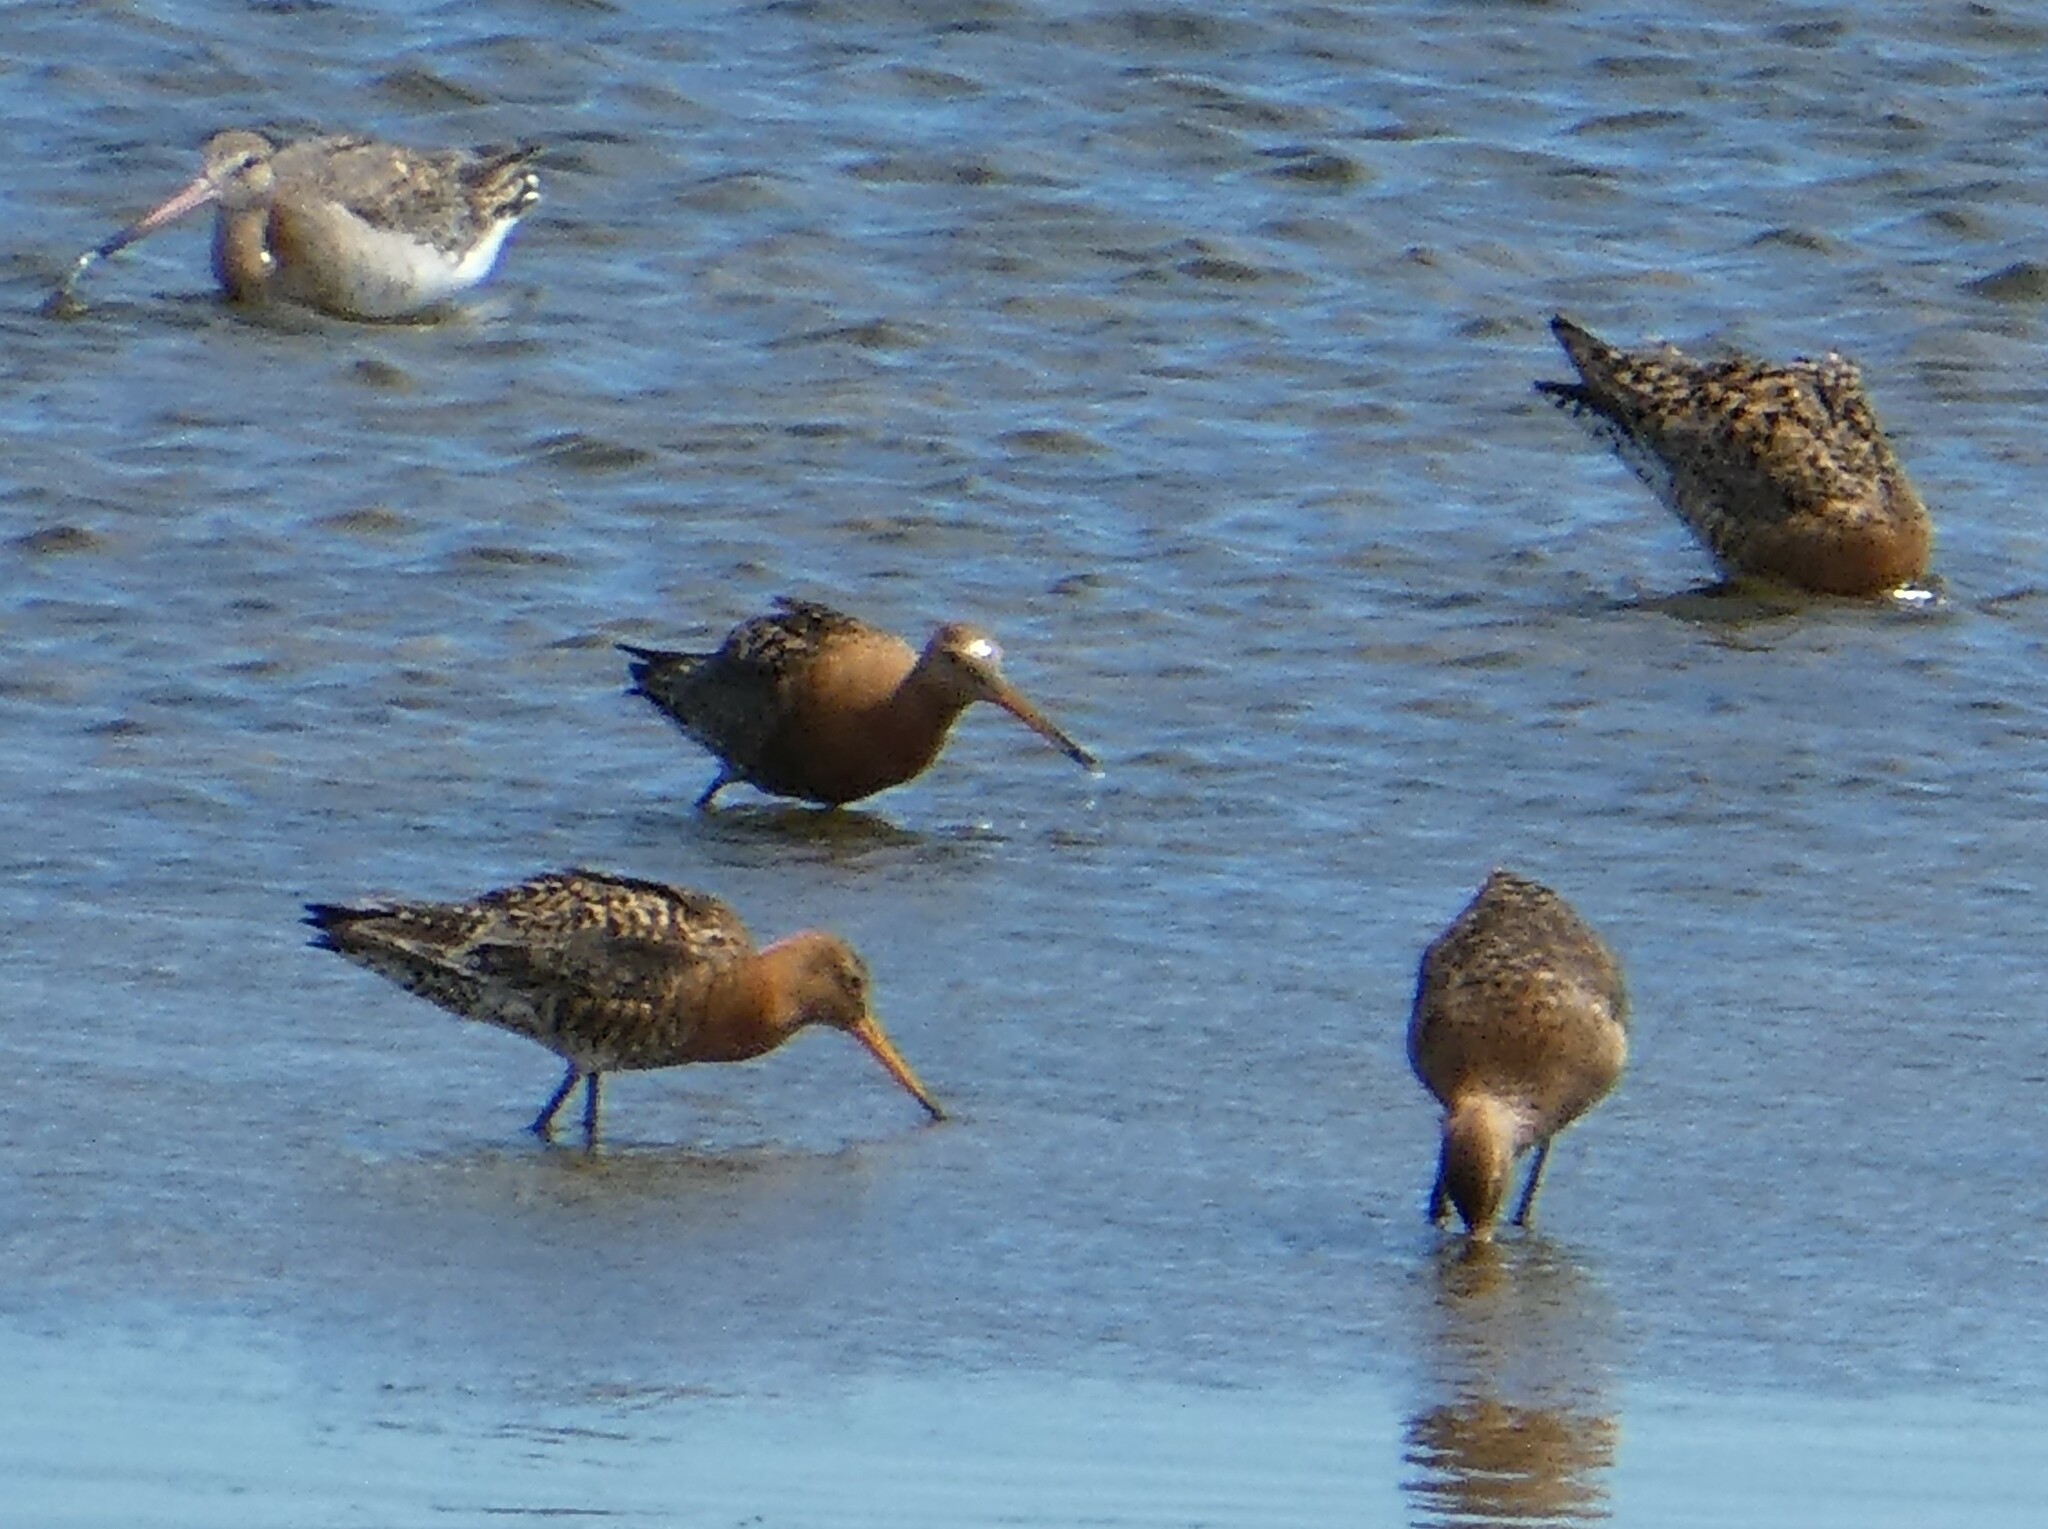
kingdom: Animalia
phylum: Chordata
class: Aves
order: Charadriiformes
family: Scolopacidae
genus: Limosa
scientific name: Limosa limosa
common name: Black-tailed godwit
